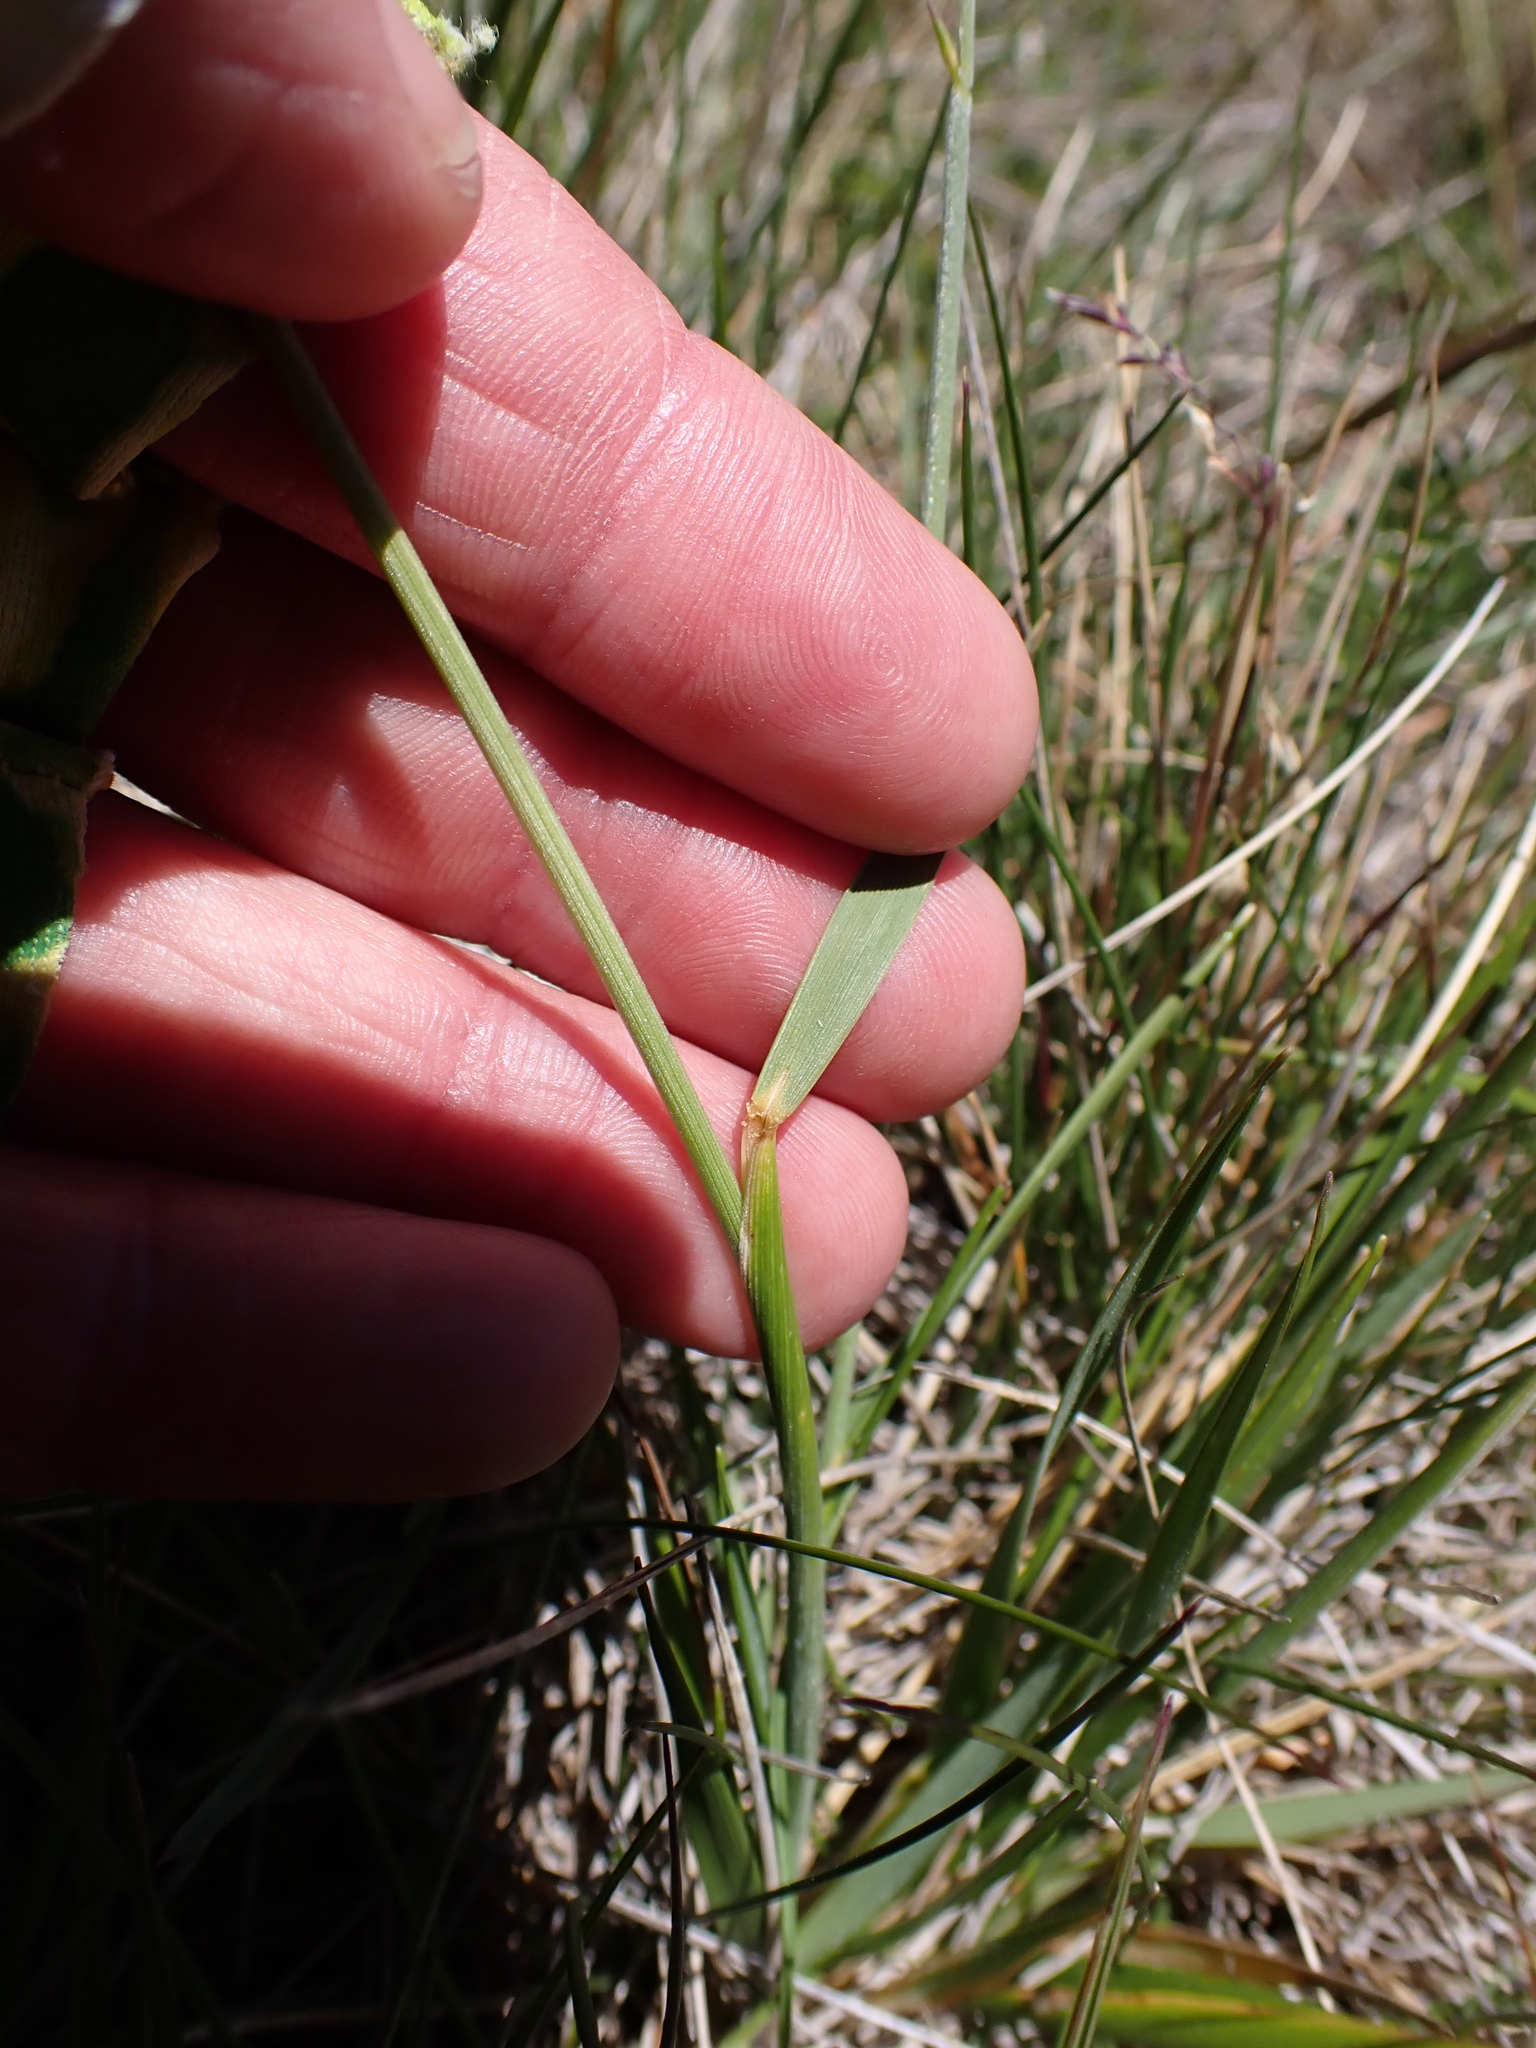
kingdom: Plantae
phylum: Tracheophyta
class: Liliopsida
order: Poales
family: Poaceae
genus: Australopyrum
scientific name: Australopyrum velutinum
